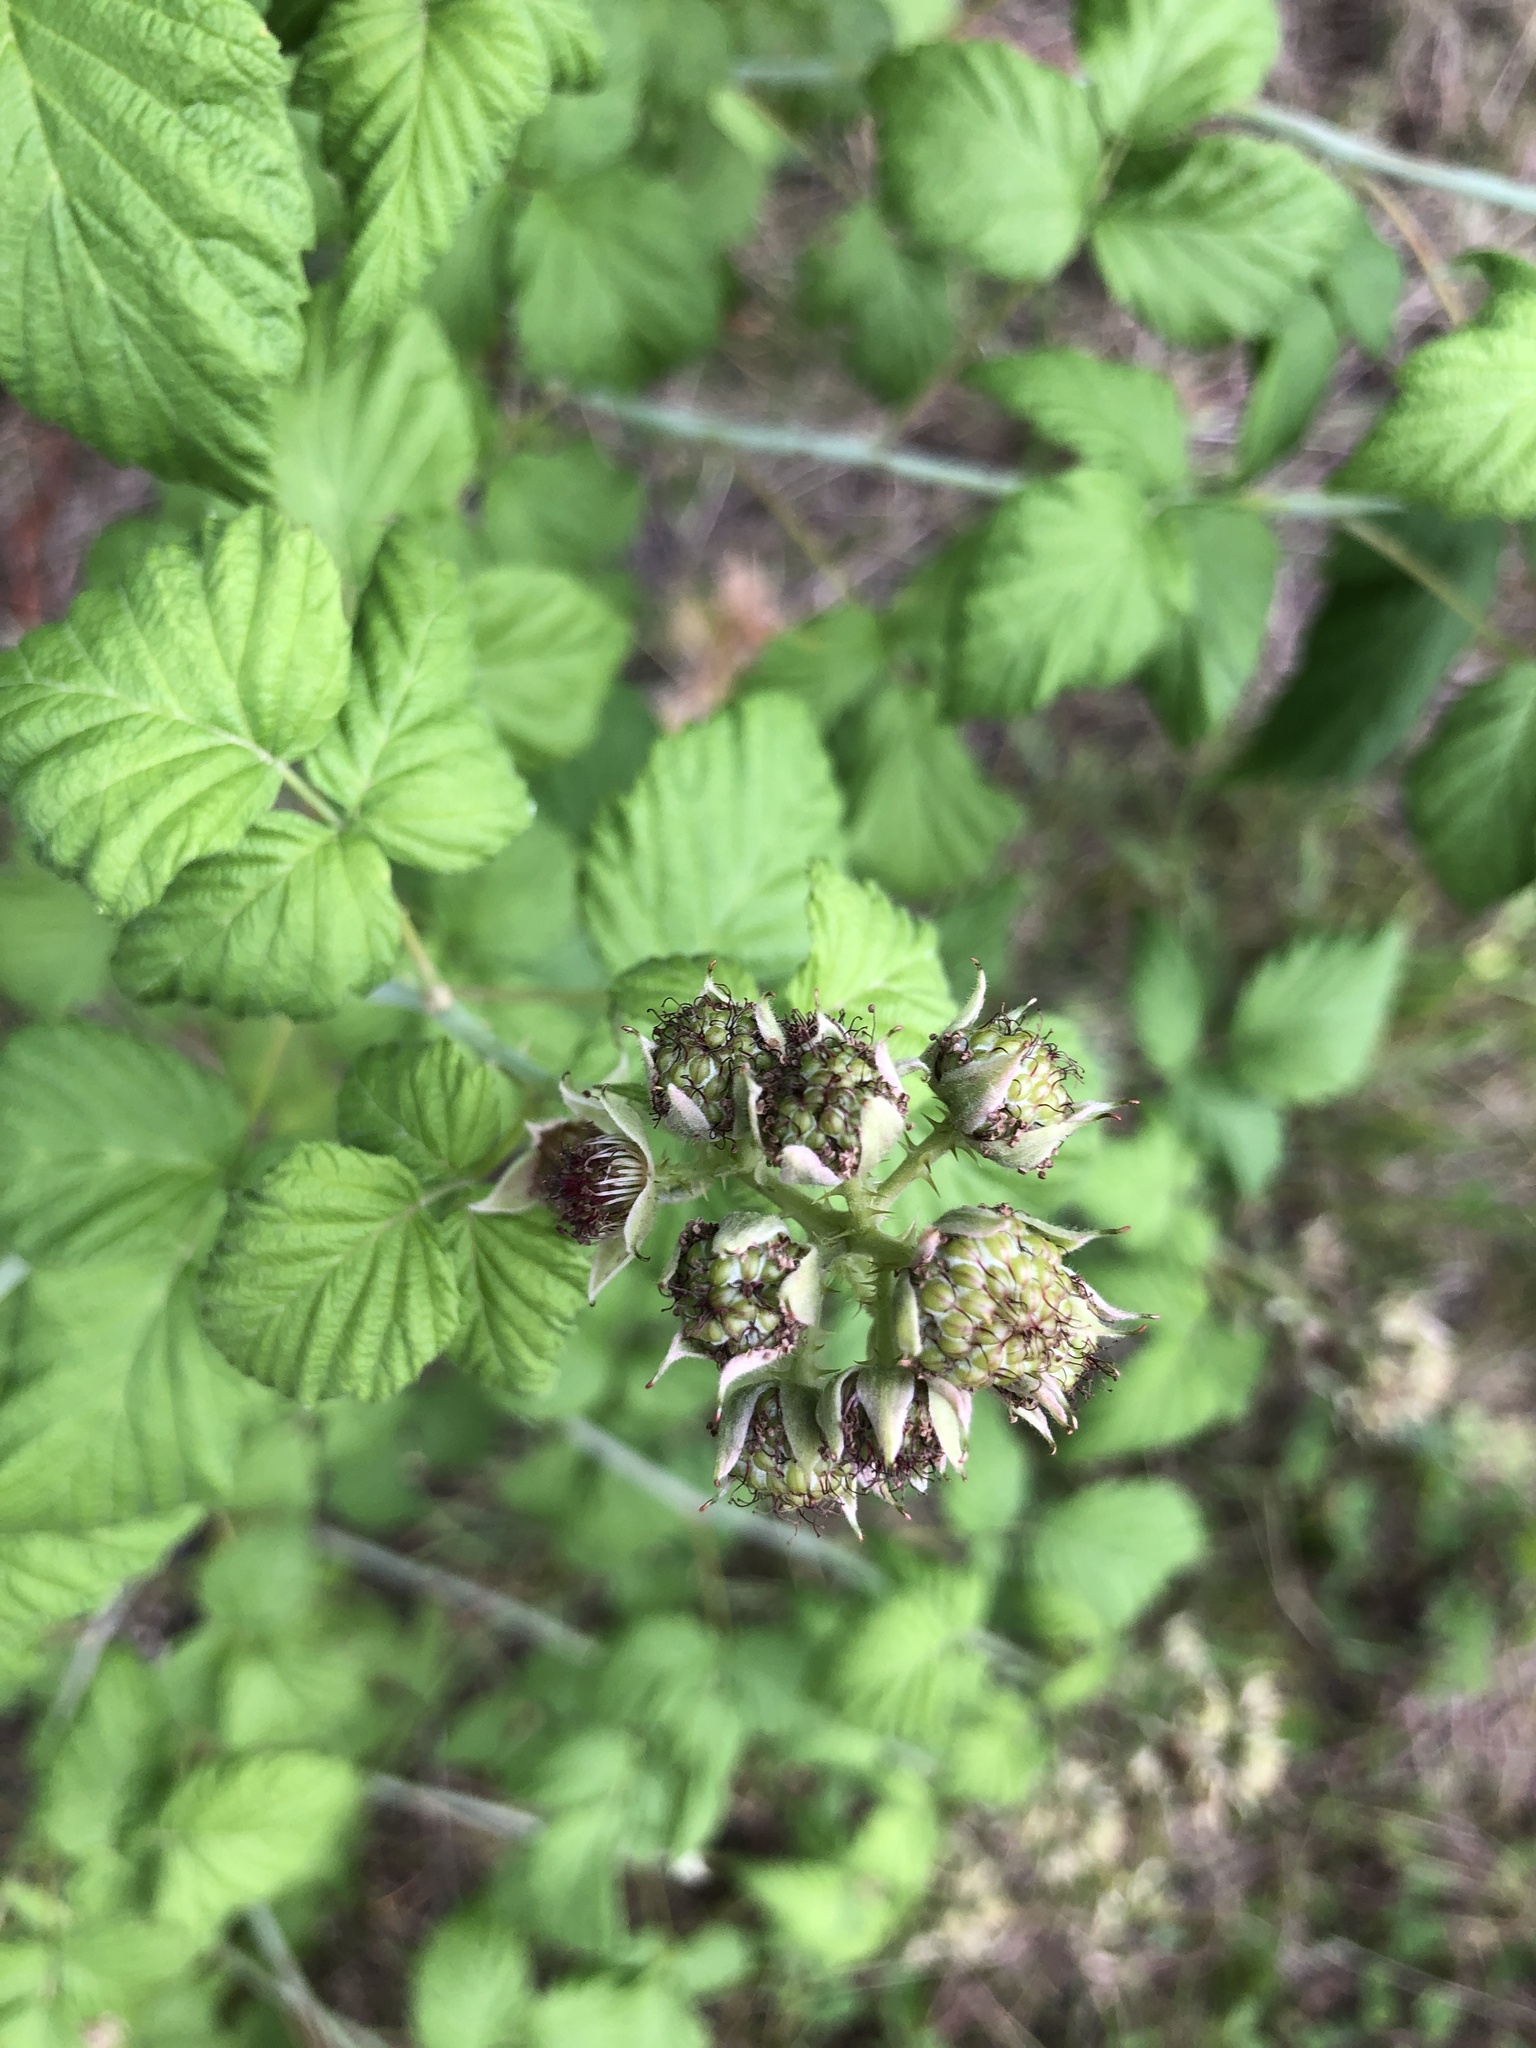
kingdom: Plantae
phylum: Tracheophyta
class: Magnoliopsida
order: Rosales
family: Rosaceae
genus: Rubus
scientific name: Rubus occidentalis
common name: Black raspberry
